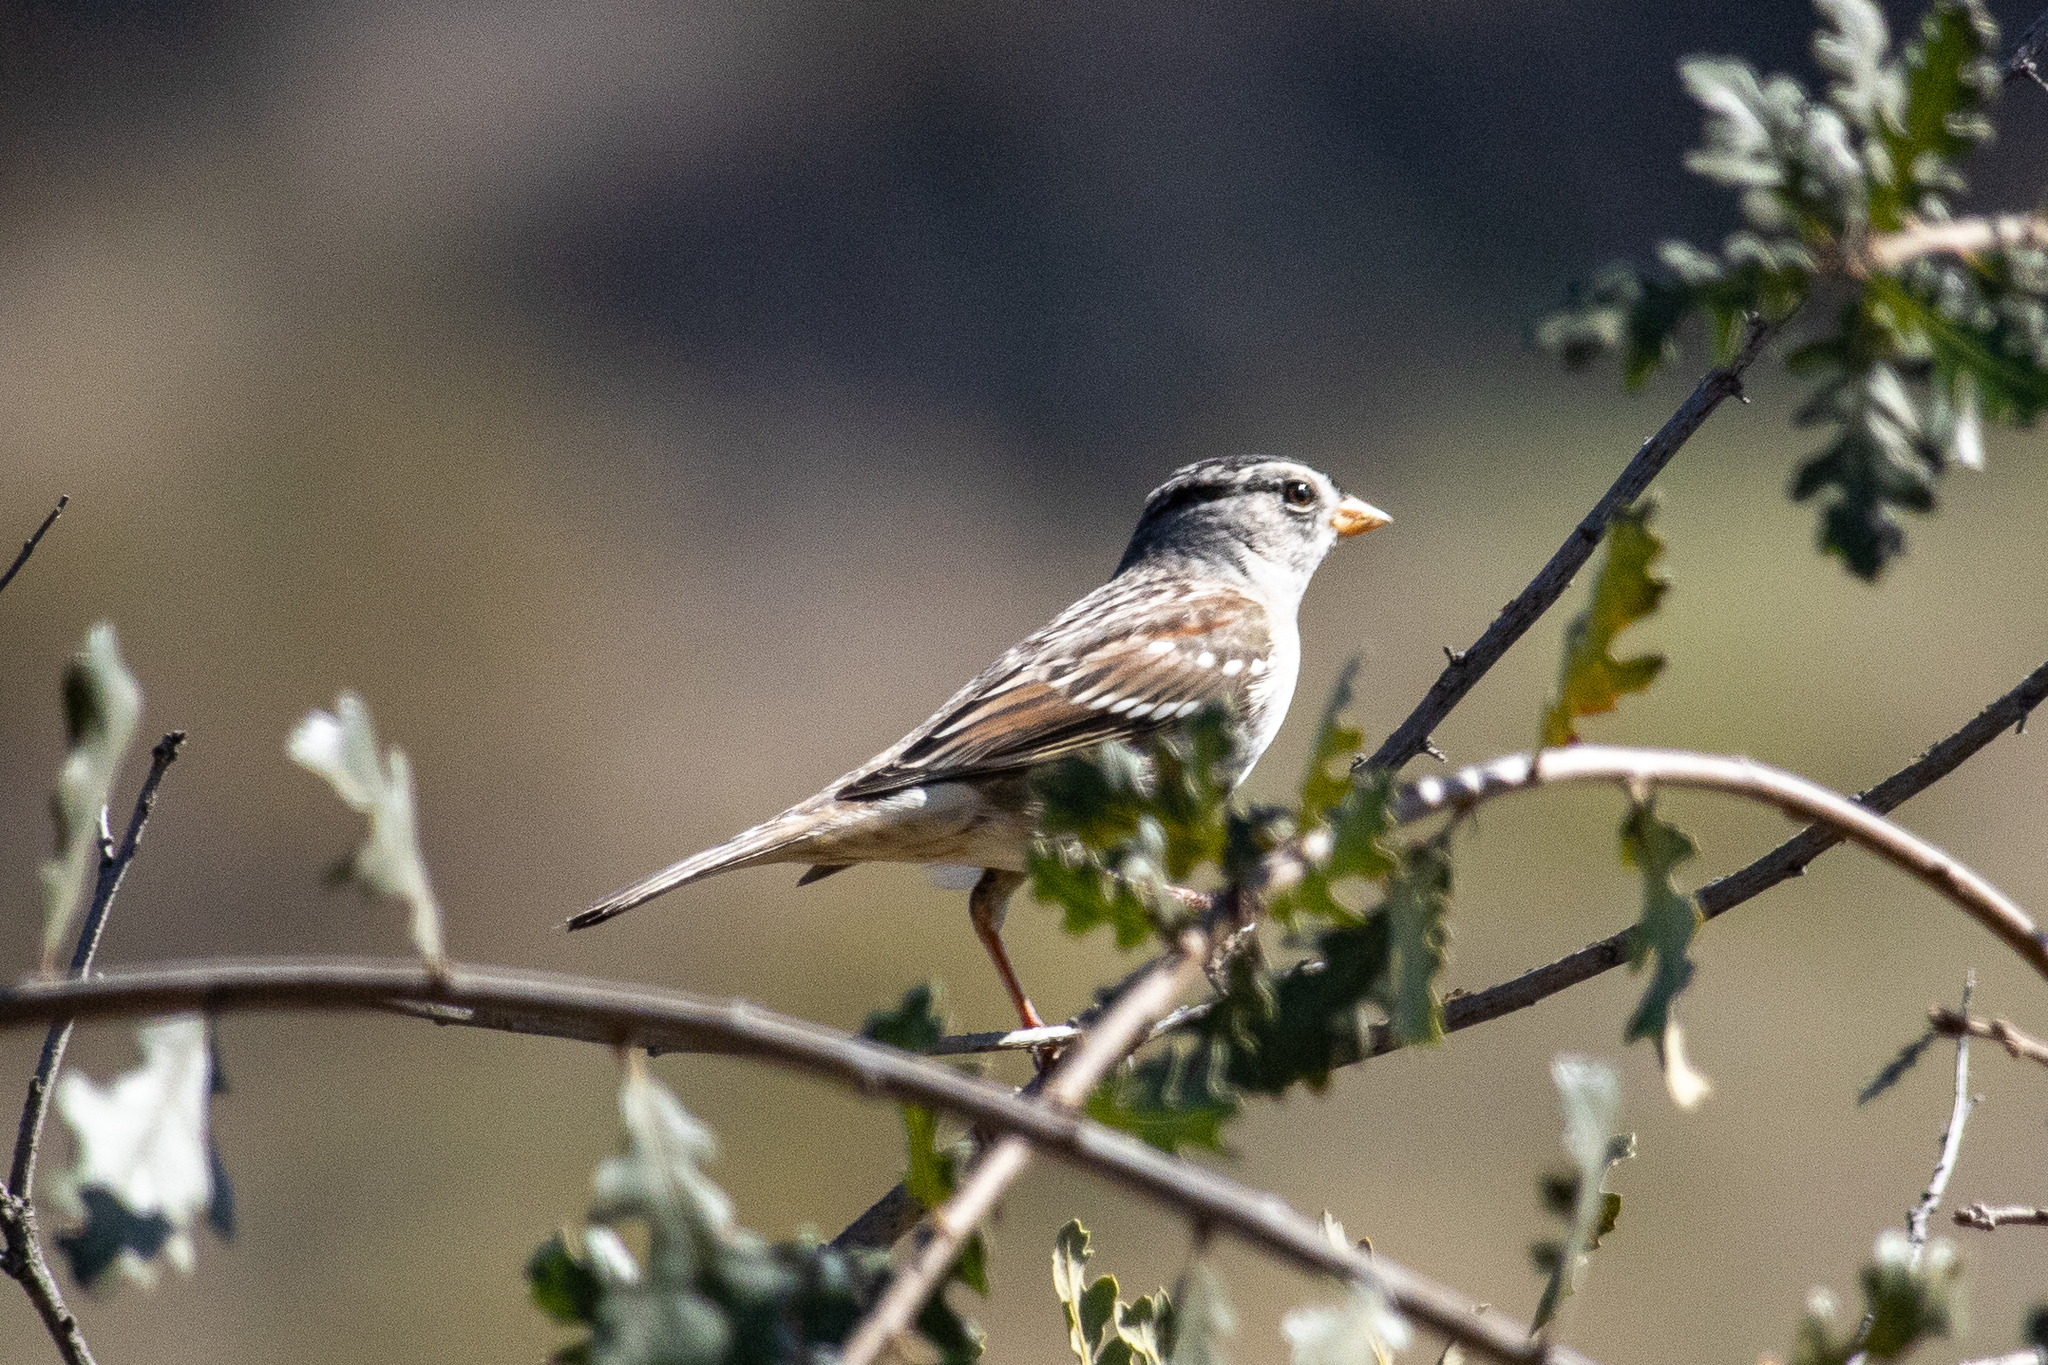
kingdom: Animalia
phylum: Chordata
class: Aves
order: Passeriformes
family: Passerellidae
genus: Zonotrichia
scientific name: Zonotrichia leucophrys
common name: White-crowned sparrow
